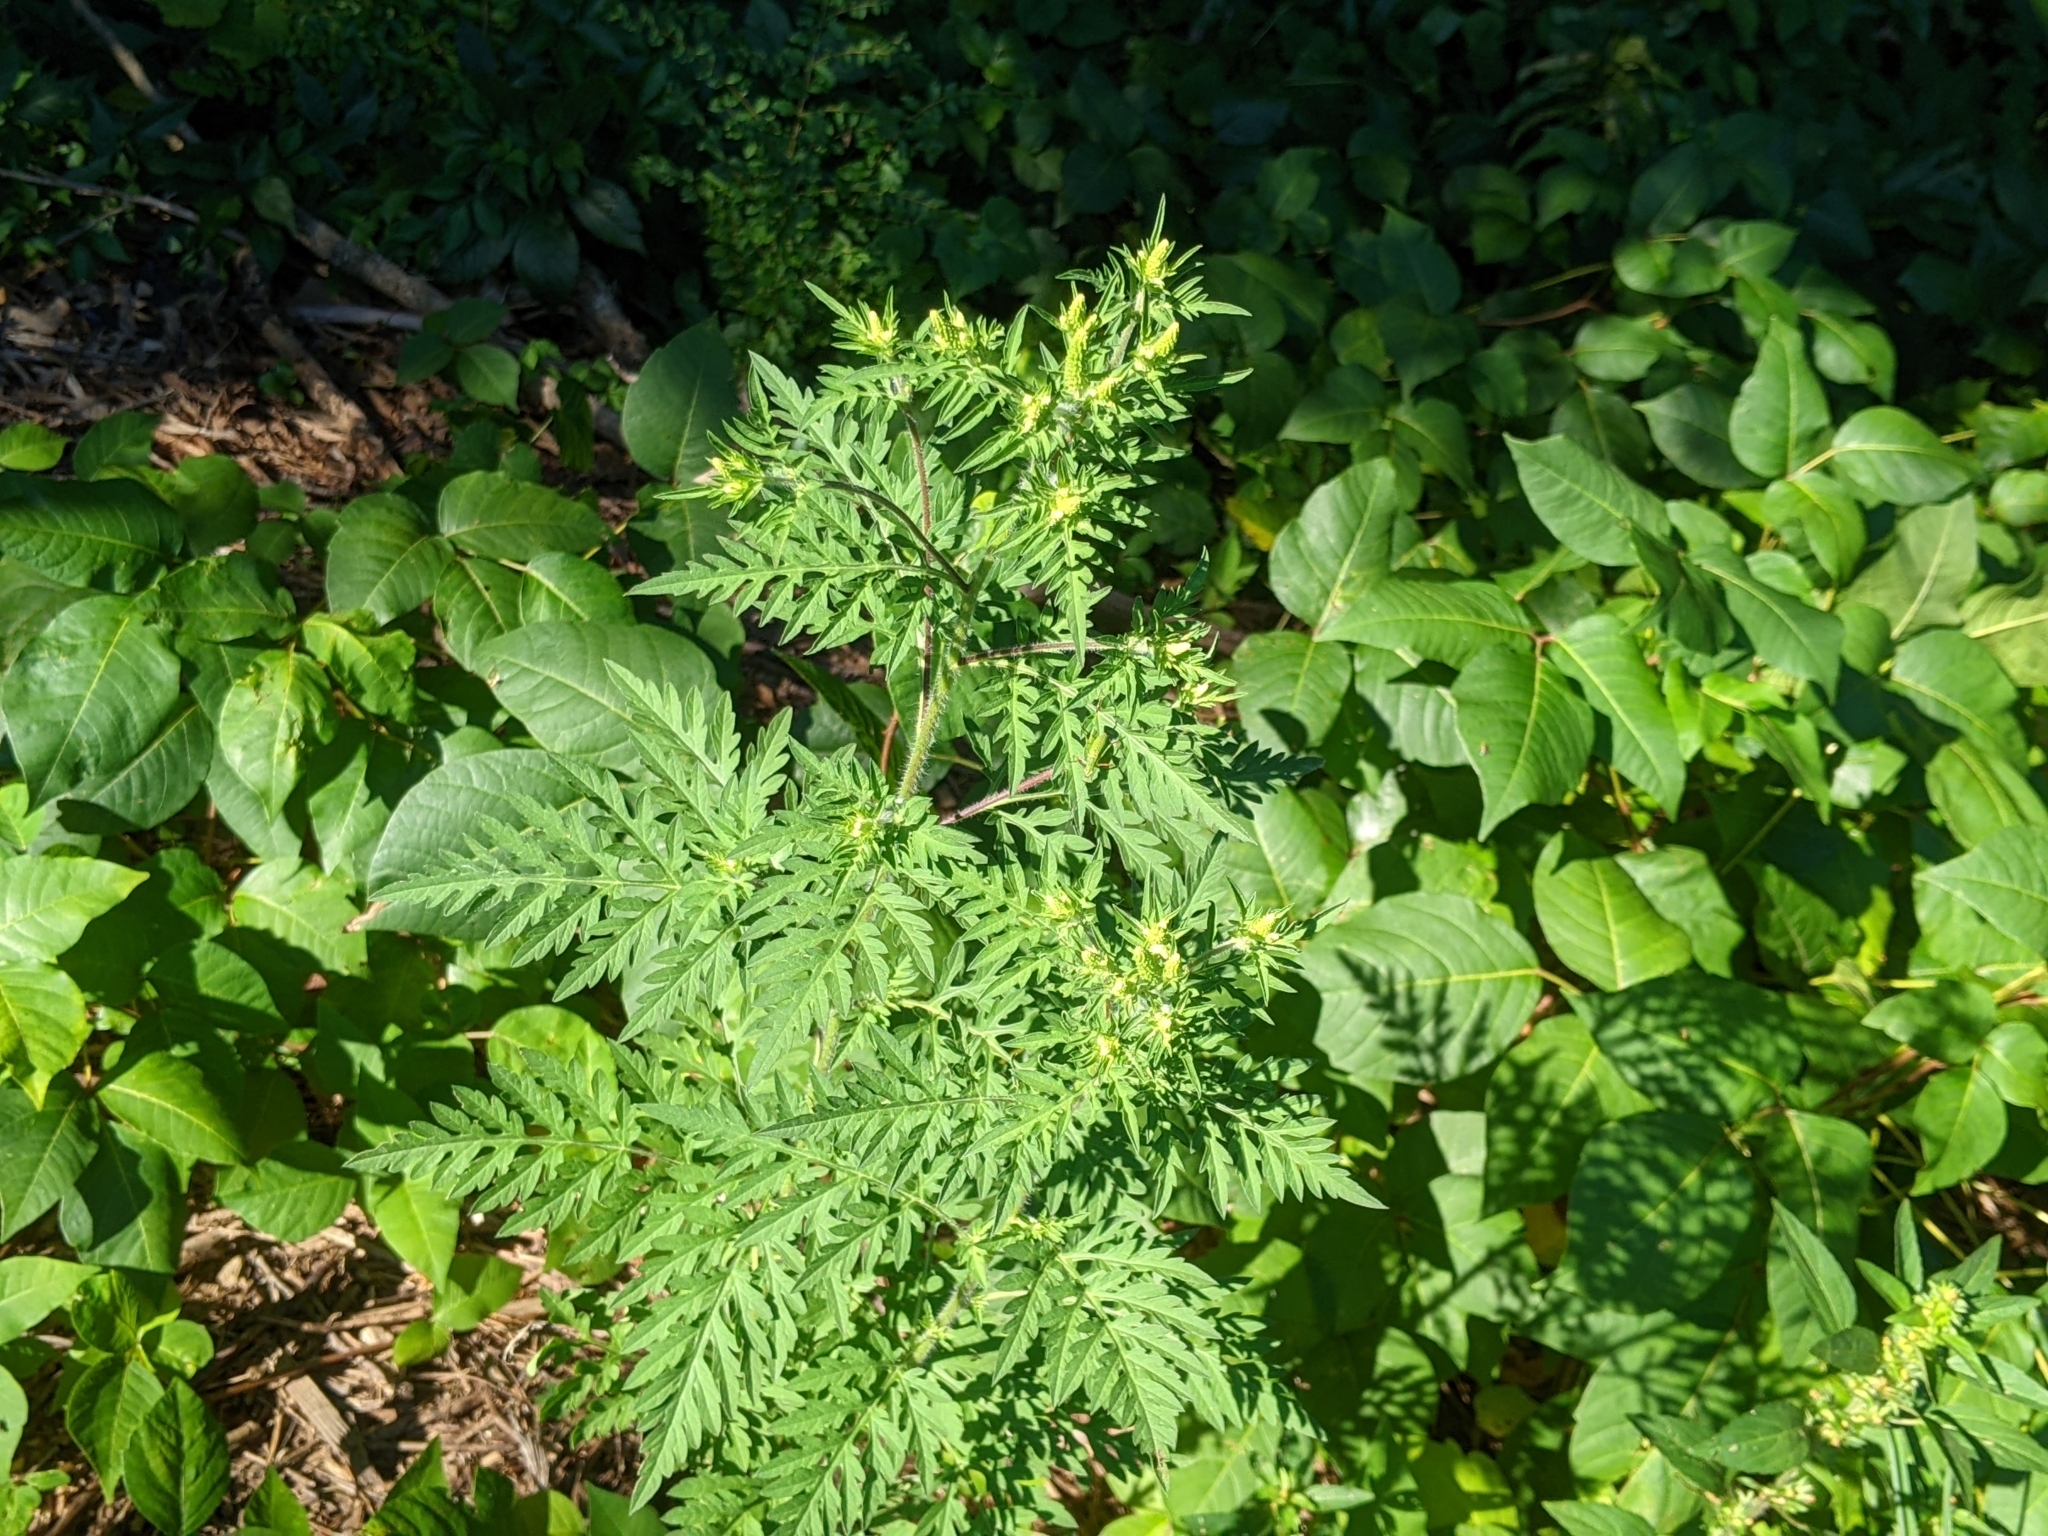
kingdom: Plantae
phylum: Tracheophyta
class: Magnoliopsida
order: Asterales
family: Asteraceae
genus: Ambrosia
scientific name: Ambrosia artemisiifolia
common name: Annual ragweed
